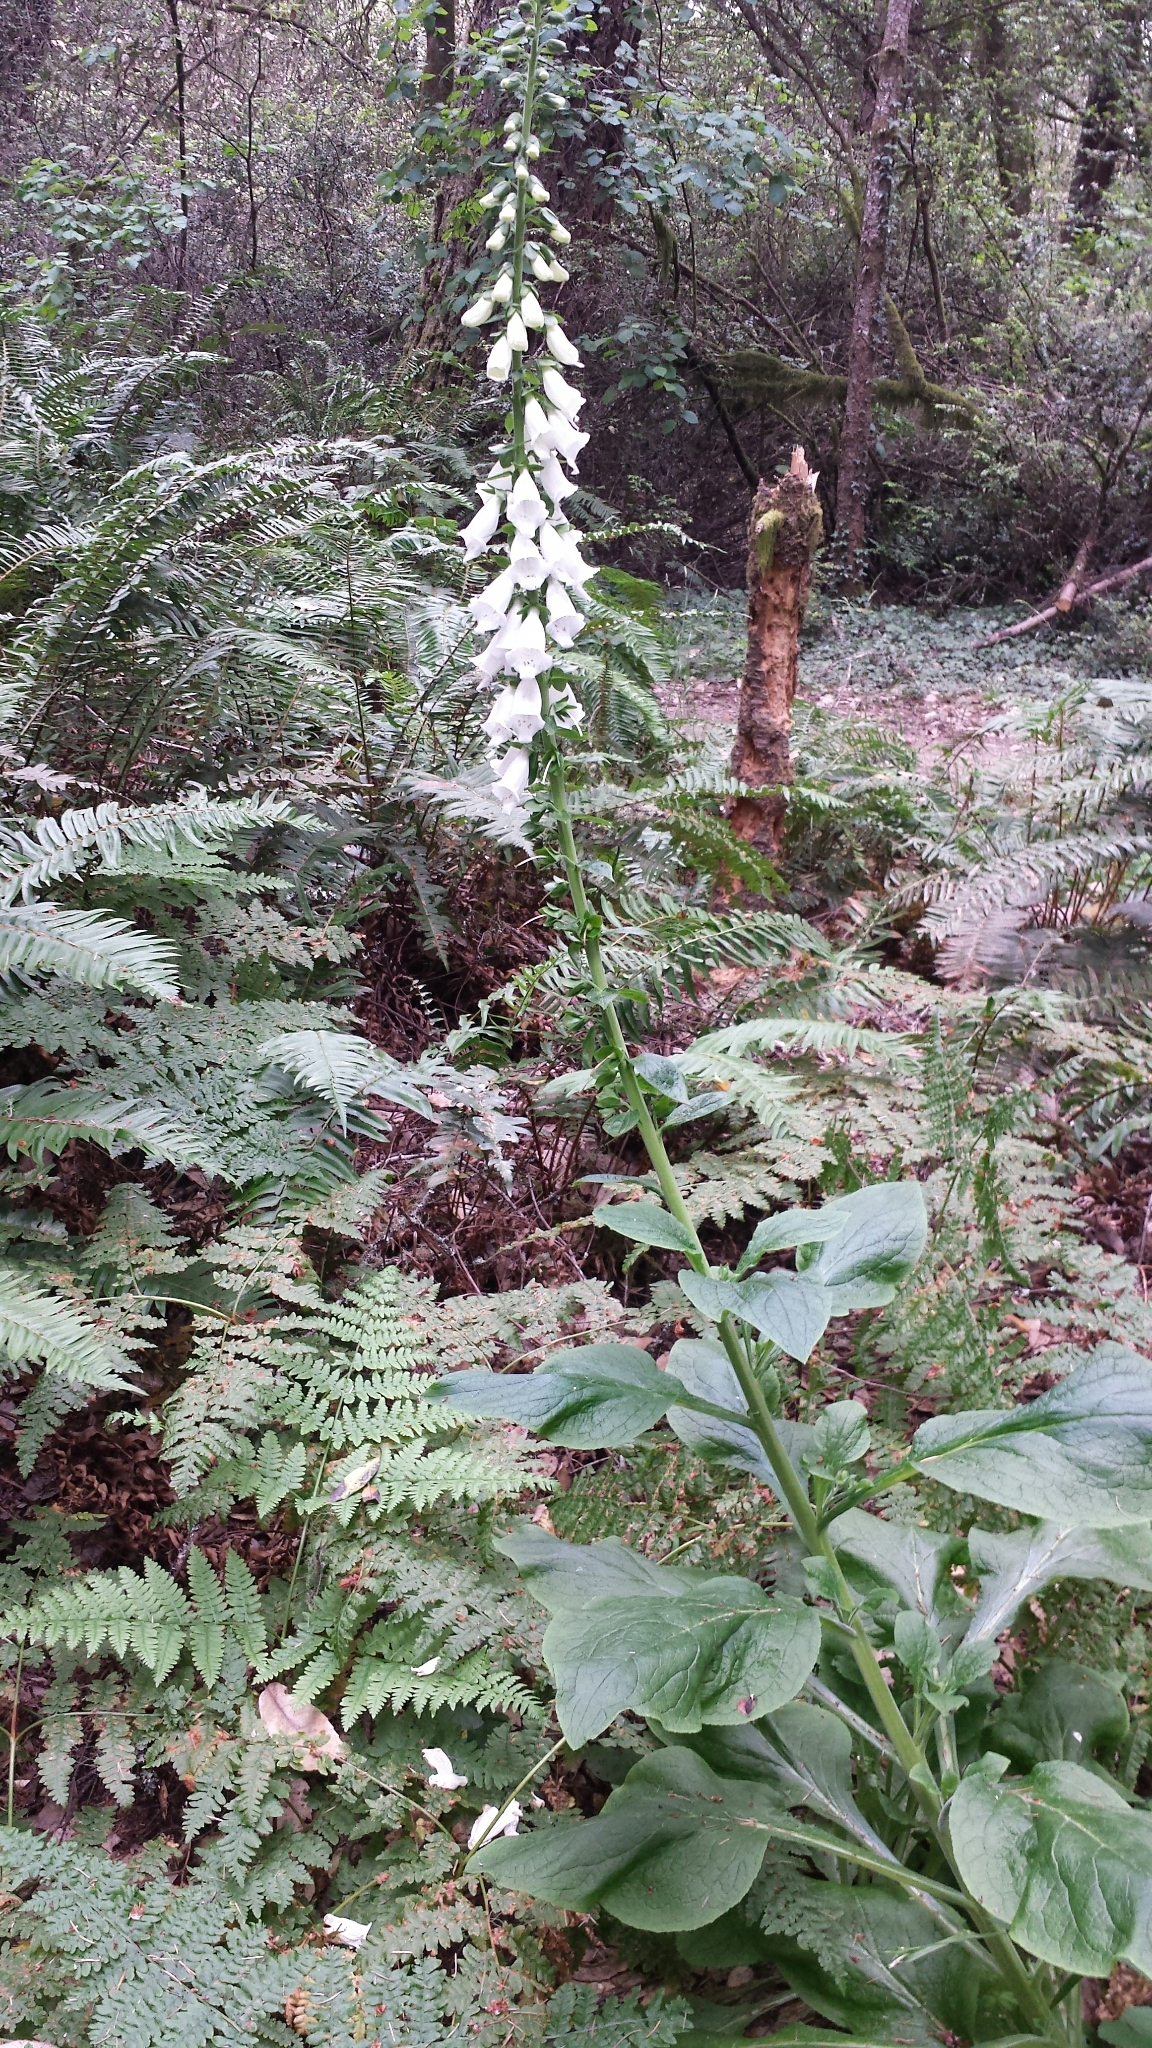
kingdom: Plantae
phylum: Tracheophyta
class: Magnoliopsida
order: Lamiales
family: Plantaginaceae
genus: Digitalis
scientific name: Digitalis purpurea
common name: Foxglove
